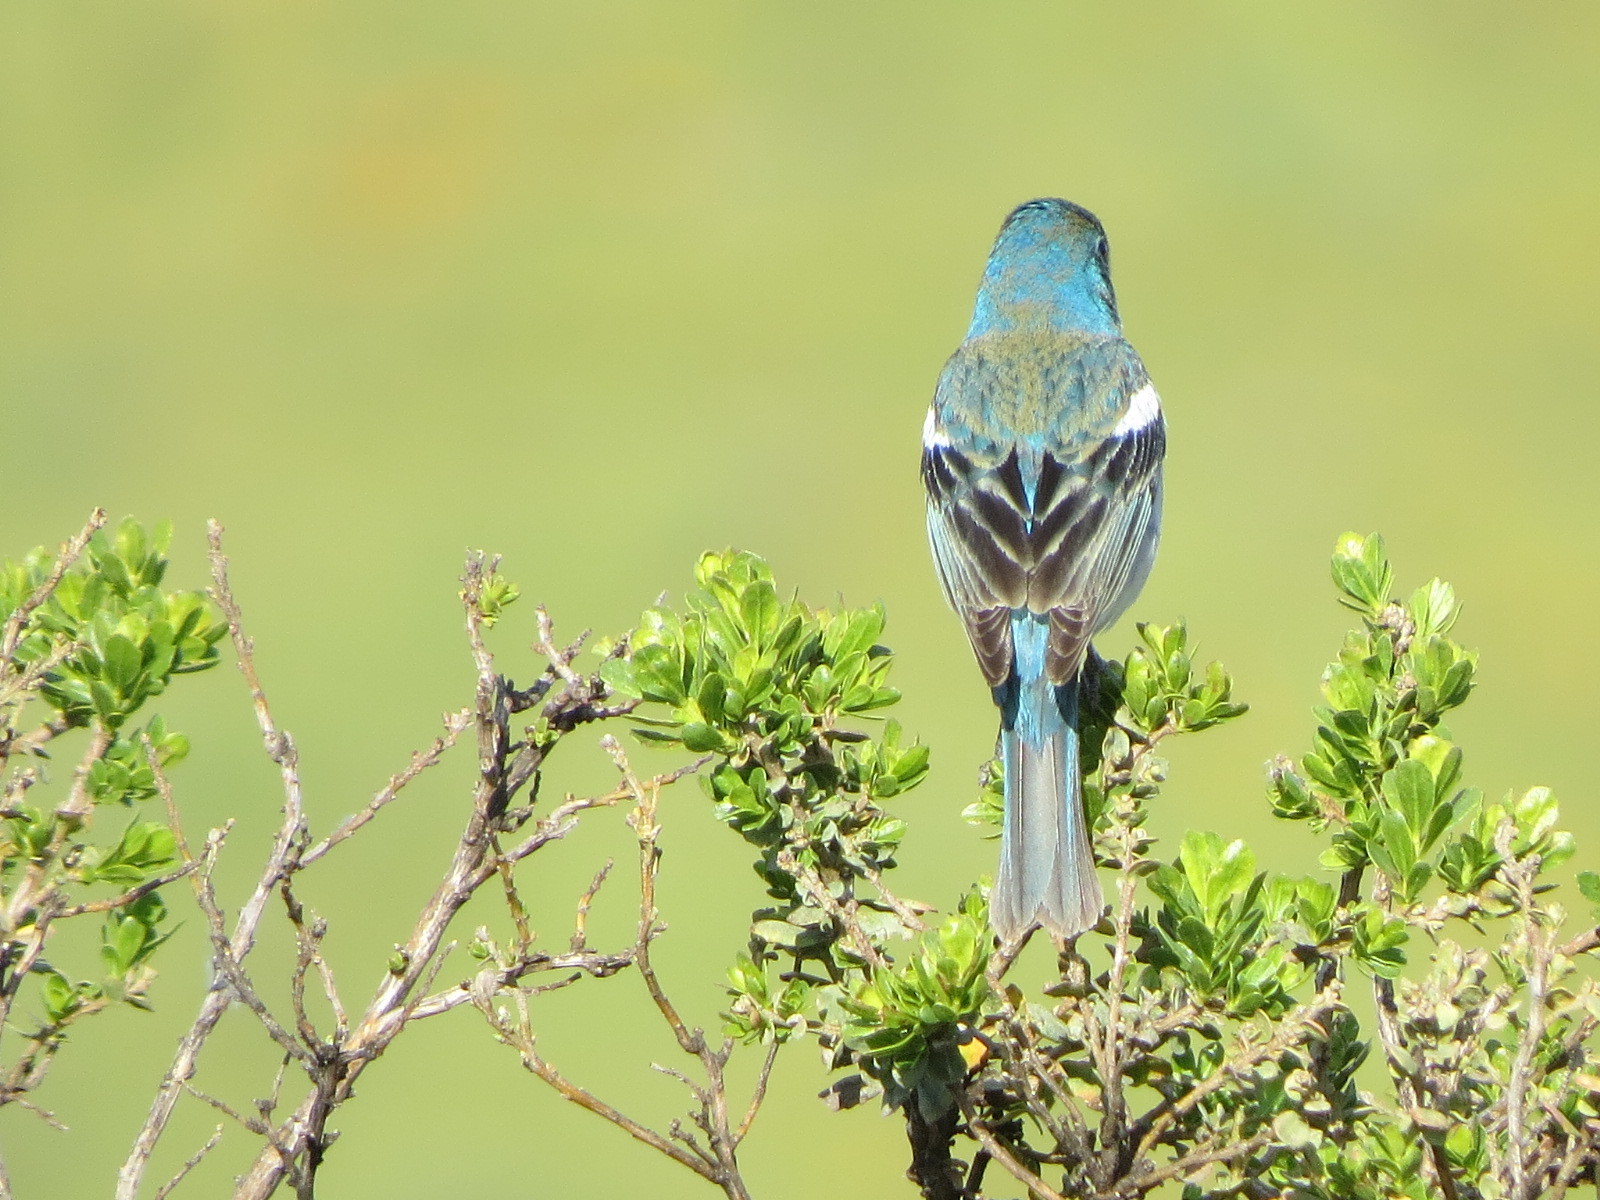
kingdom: Animalia
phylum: Chordata
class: Aves
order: Passeriformes
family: Cardinalidae
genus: Passerina
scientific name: Passerina amoena
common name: Lazuli bunting
